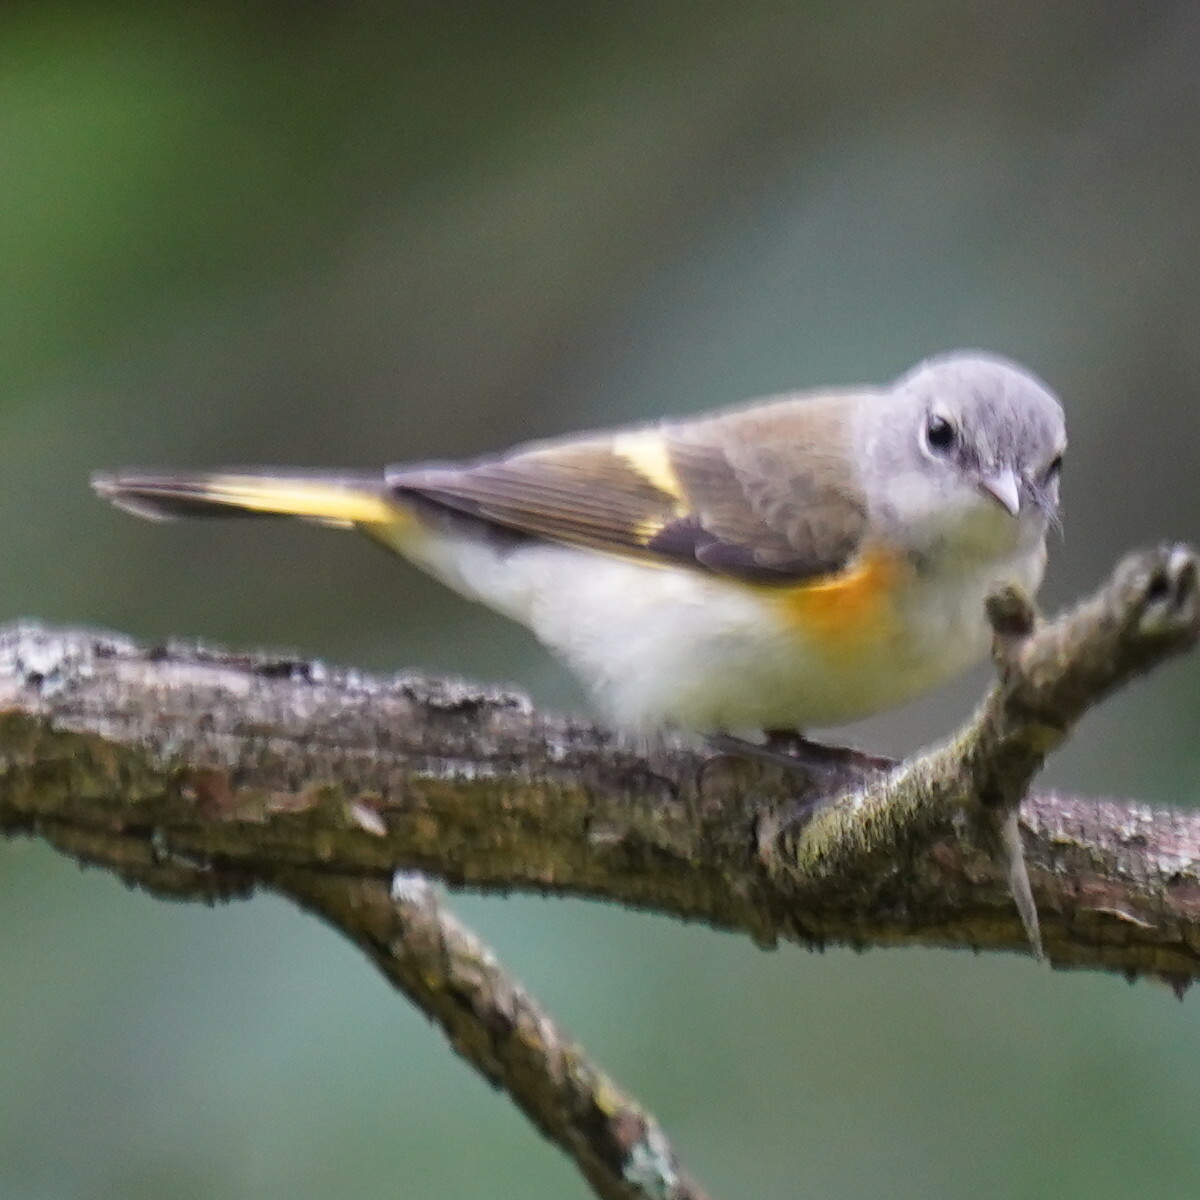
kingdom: Animalia
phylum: Chordata
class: Aves
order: Passeriformes
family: Parulidae
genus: Setophaga
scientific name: Setophaga ruticilla
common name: American redstart
